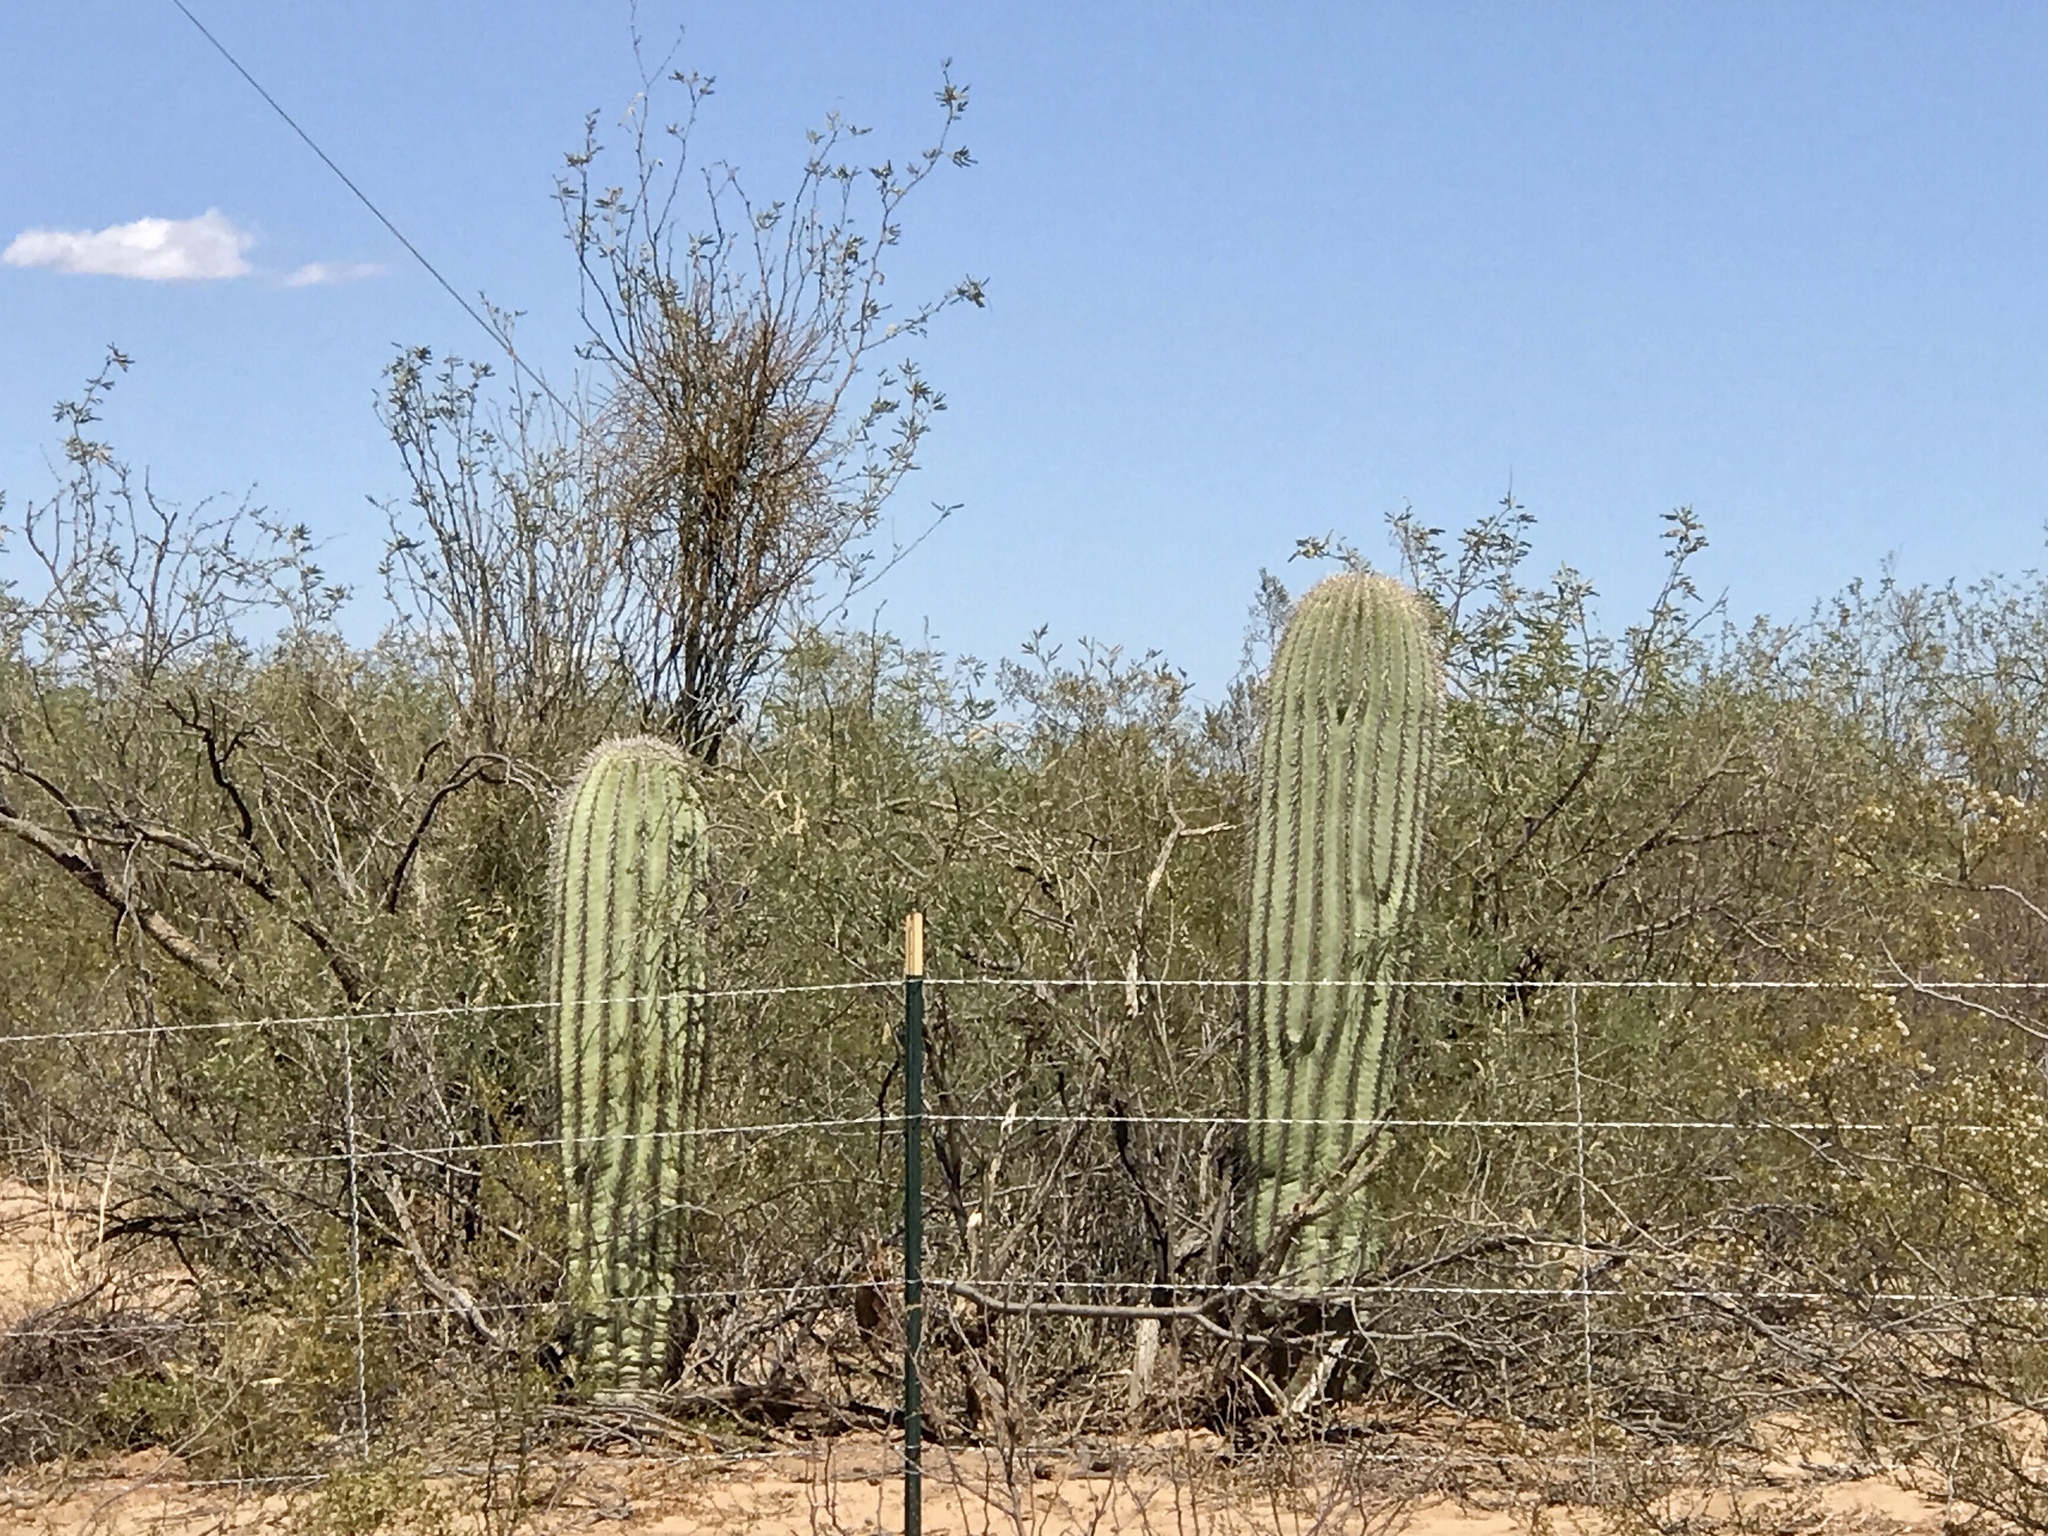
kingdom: Plantae
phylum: Tracheophyta
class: Magnoliopsida
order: Caryophyllales
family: Cactaceae
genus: Carnegiea
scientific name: Carnegiea gigantea
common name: Saguaro
